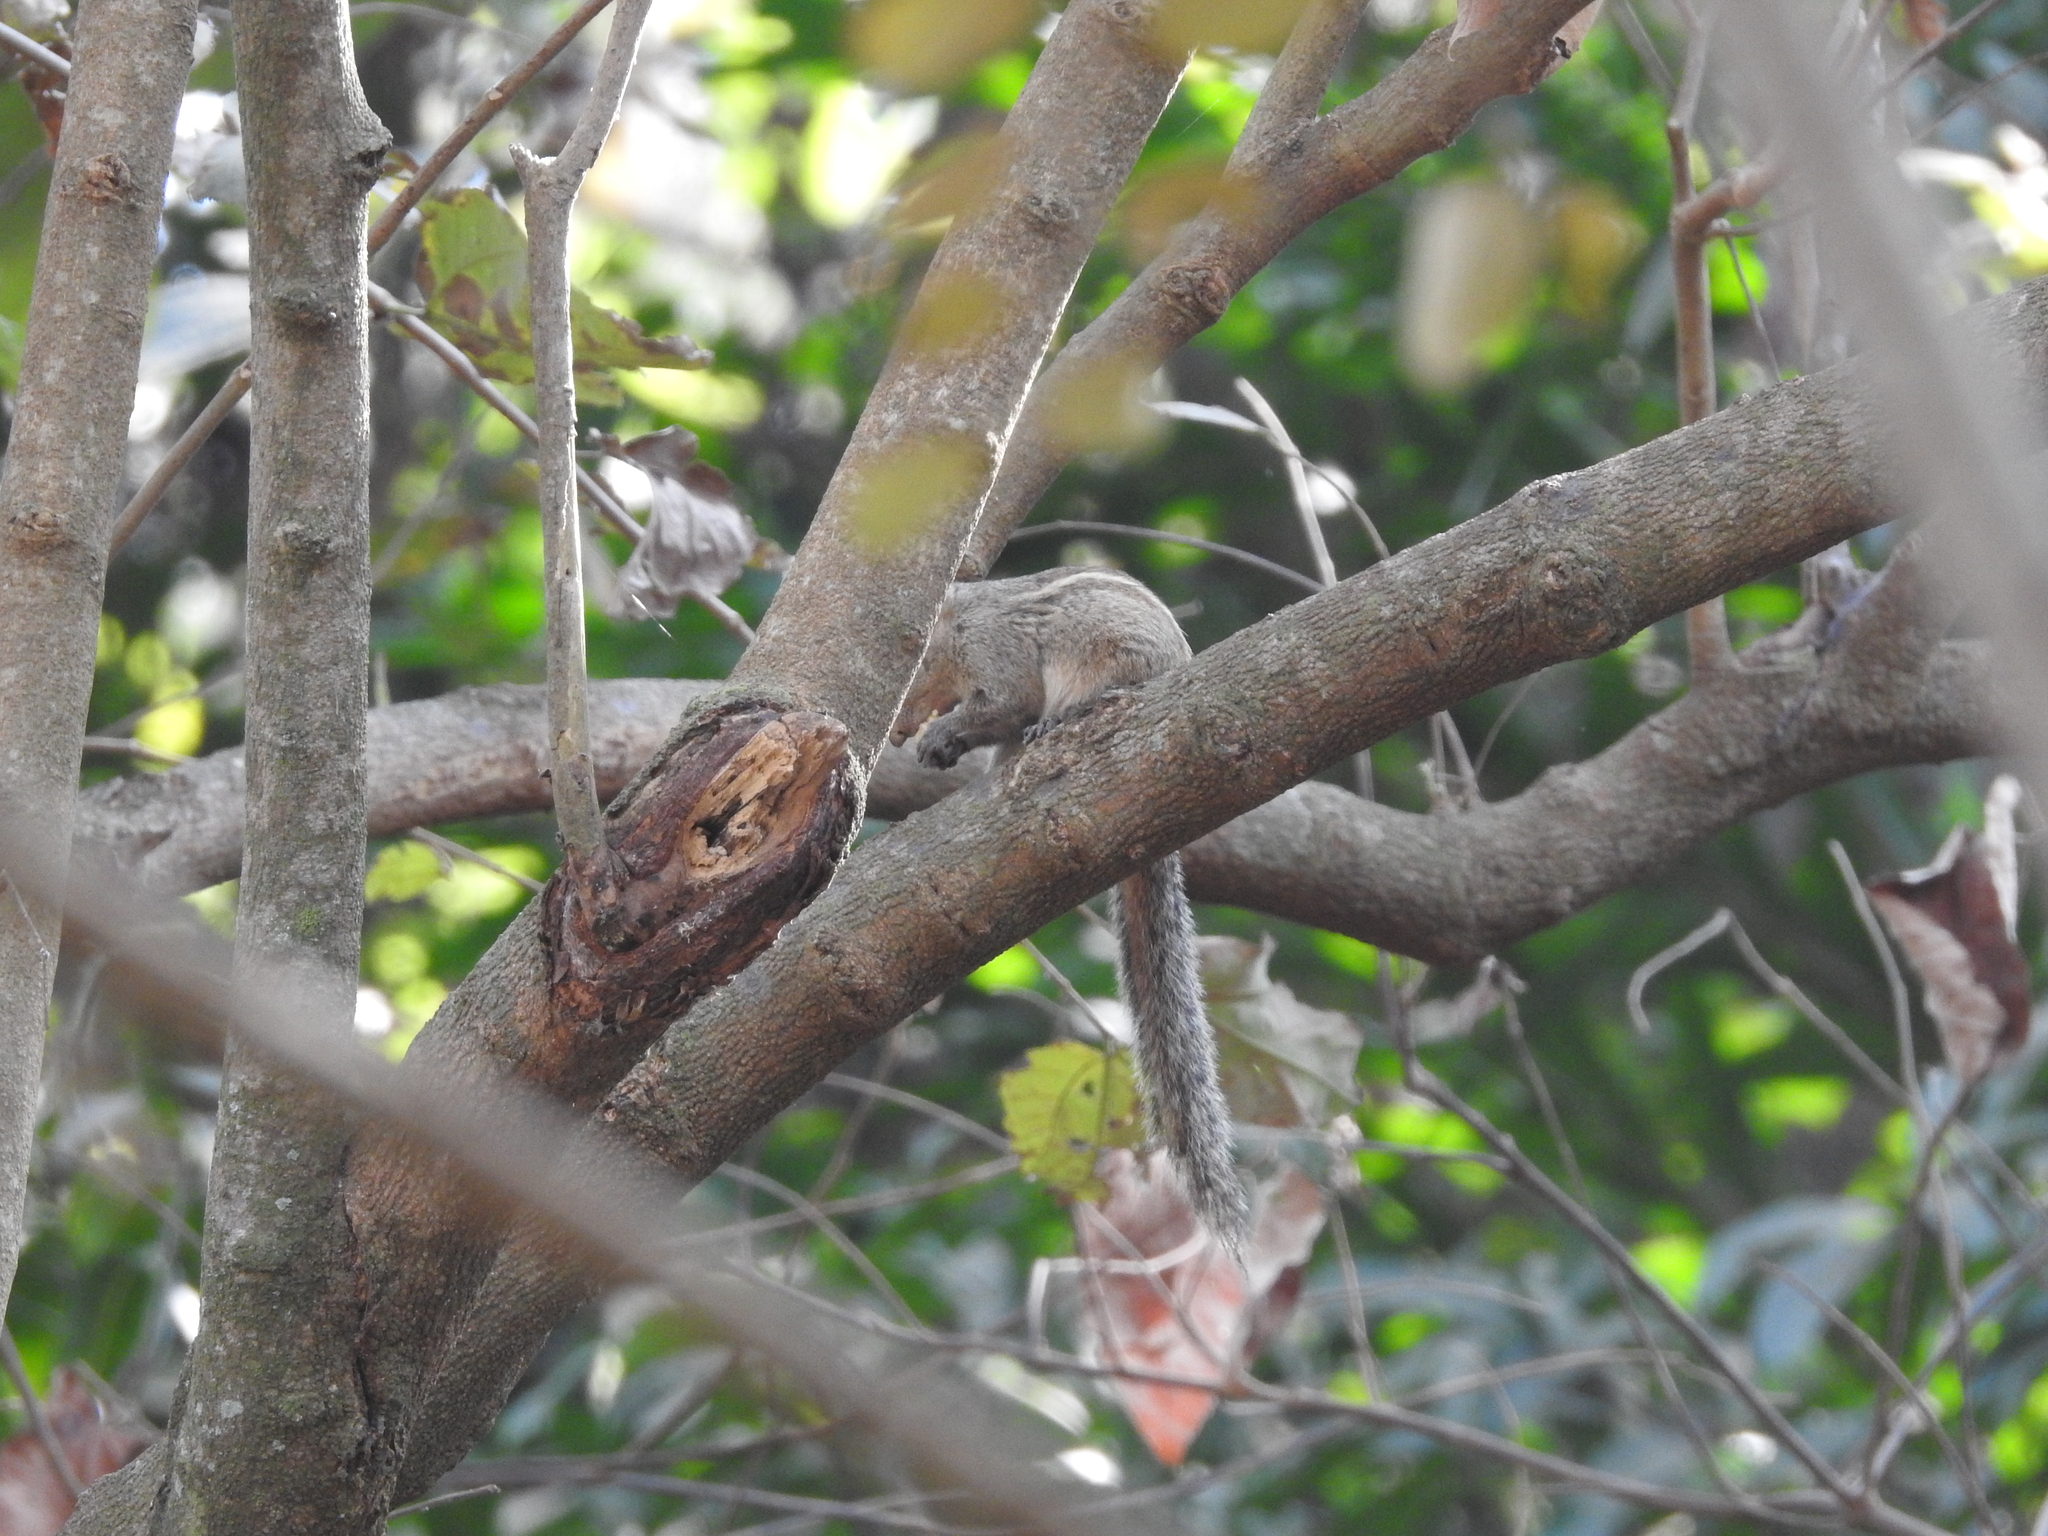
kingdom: Animalia
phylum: Chordata
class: Mammalia
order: Rodentia
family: Sciuridae
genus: Funambulus
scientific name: Funambulus tristriatus
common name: Jungle palm squirrel
